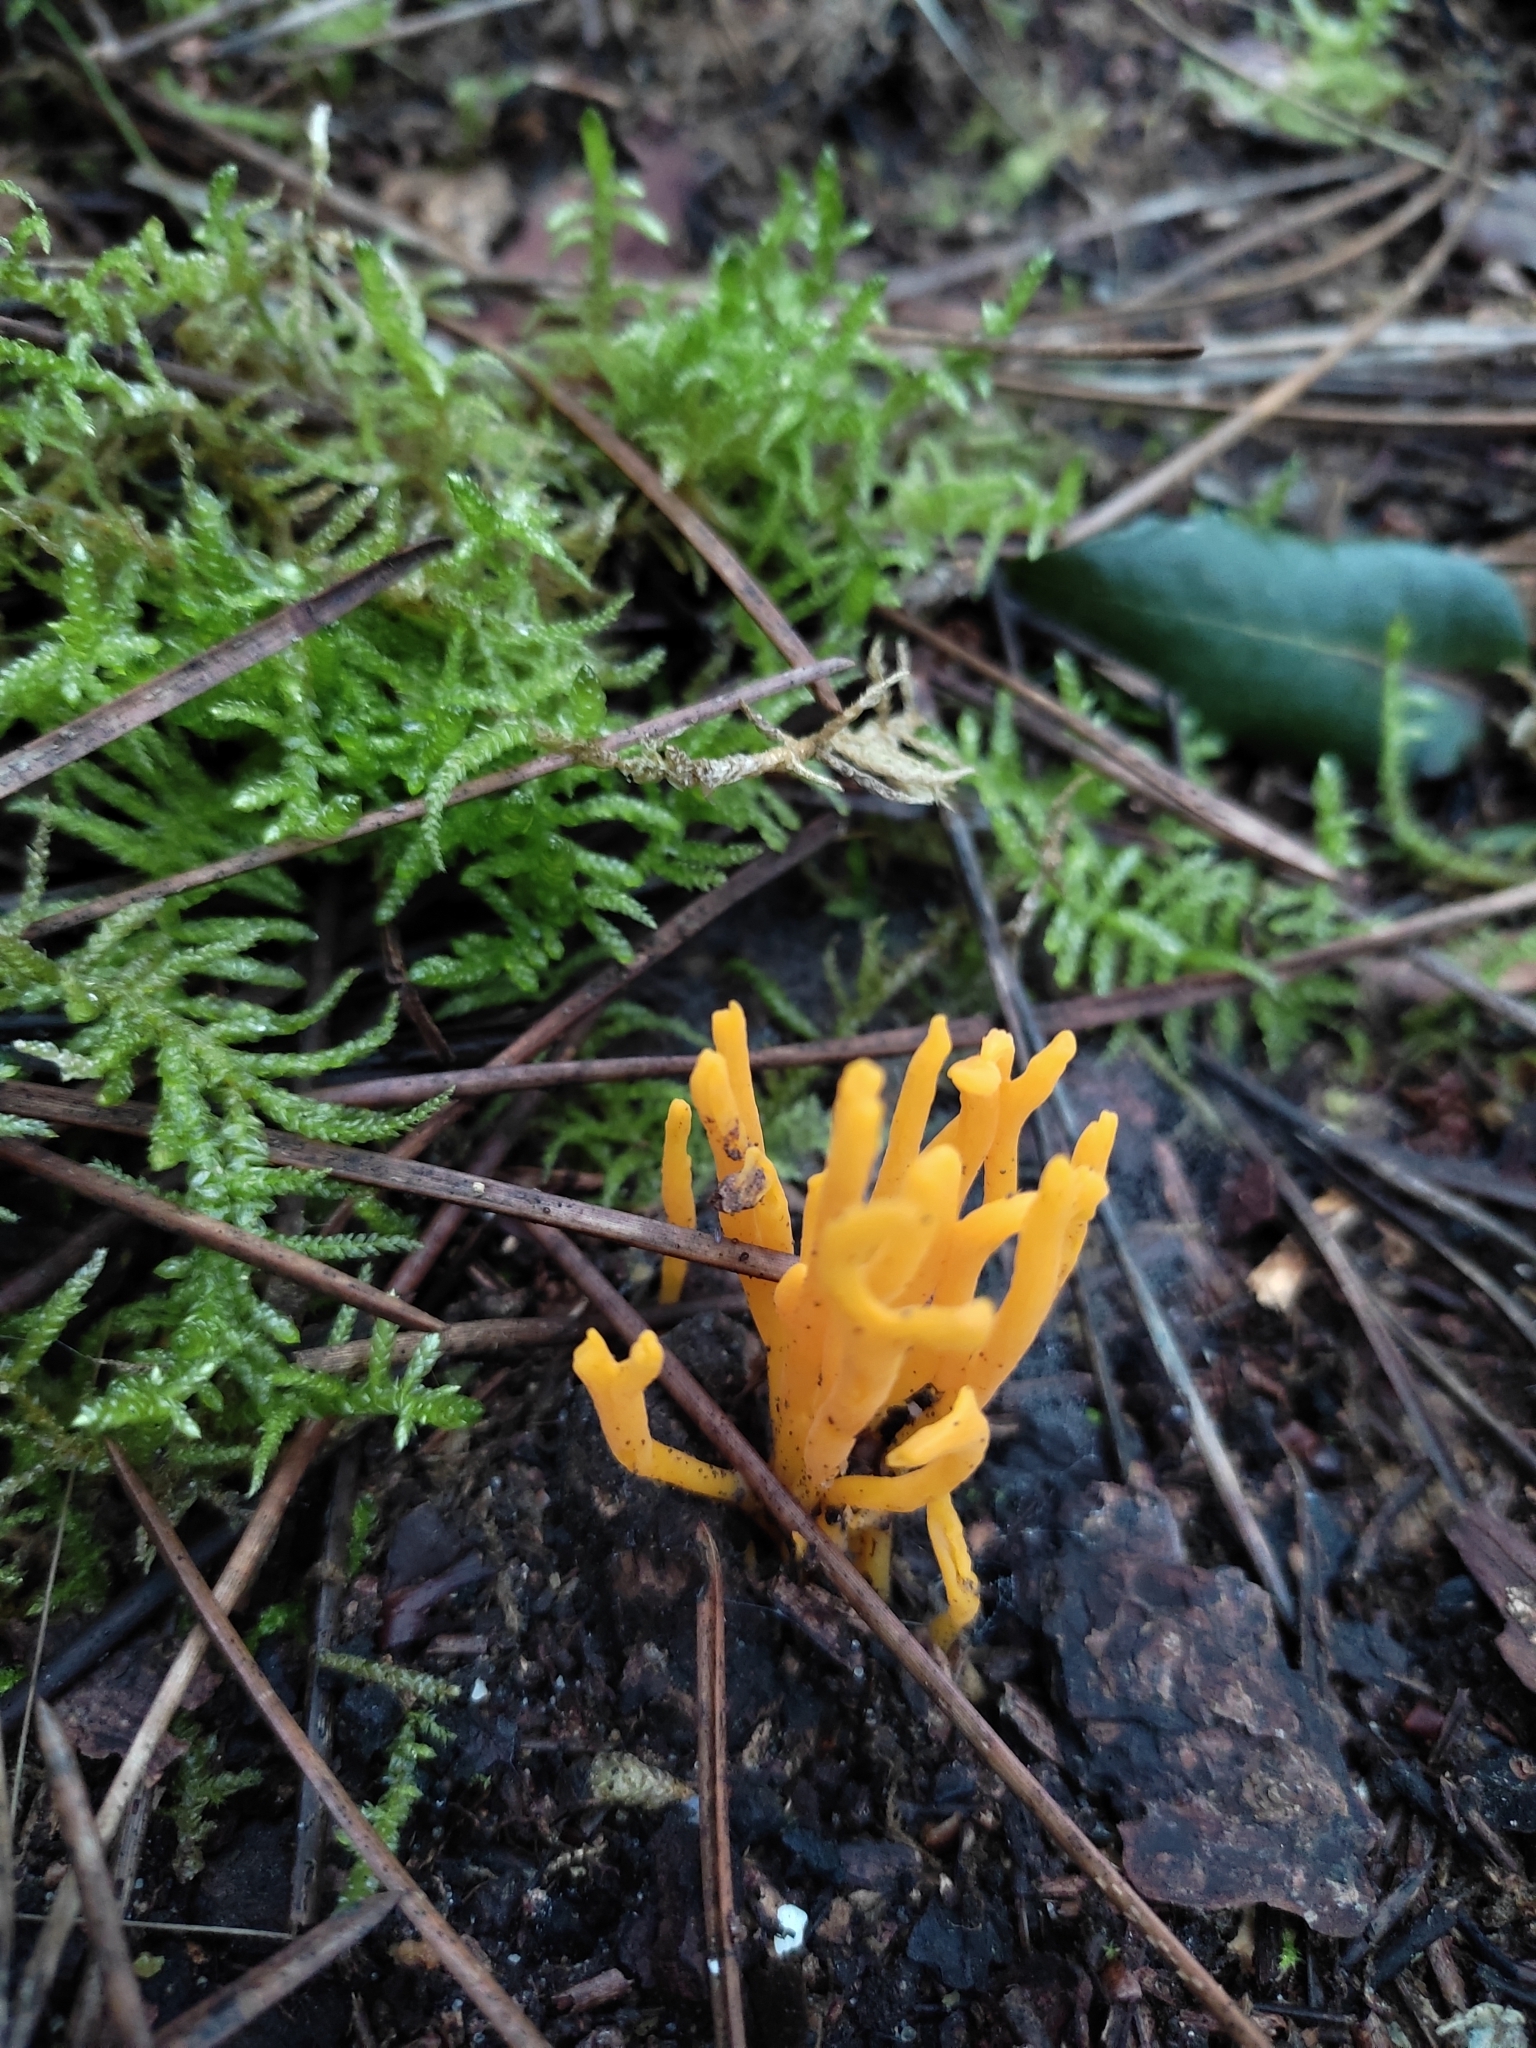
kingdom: Fungi
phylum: Basidiomycota
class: Dacrymycetes
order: Dacrymycetales
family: Dacrymycetaceae
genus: Calocera
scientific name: Calocera viscosa
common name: Yellow stagshorn
